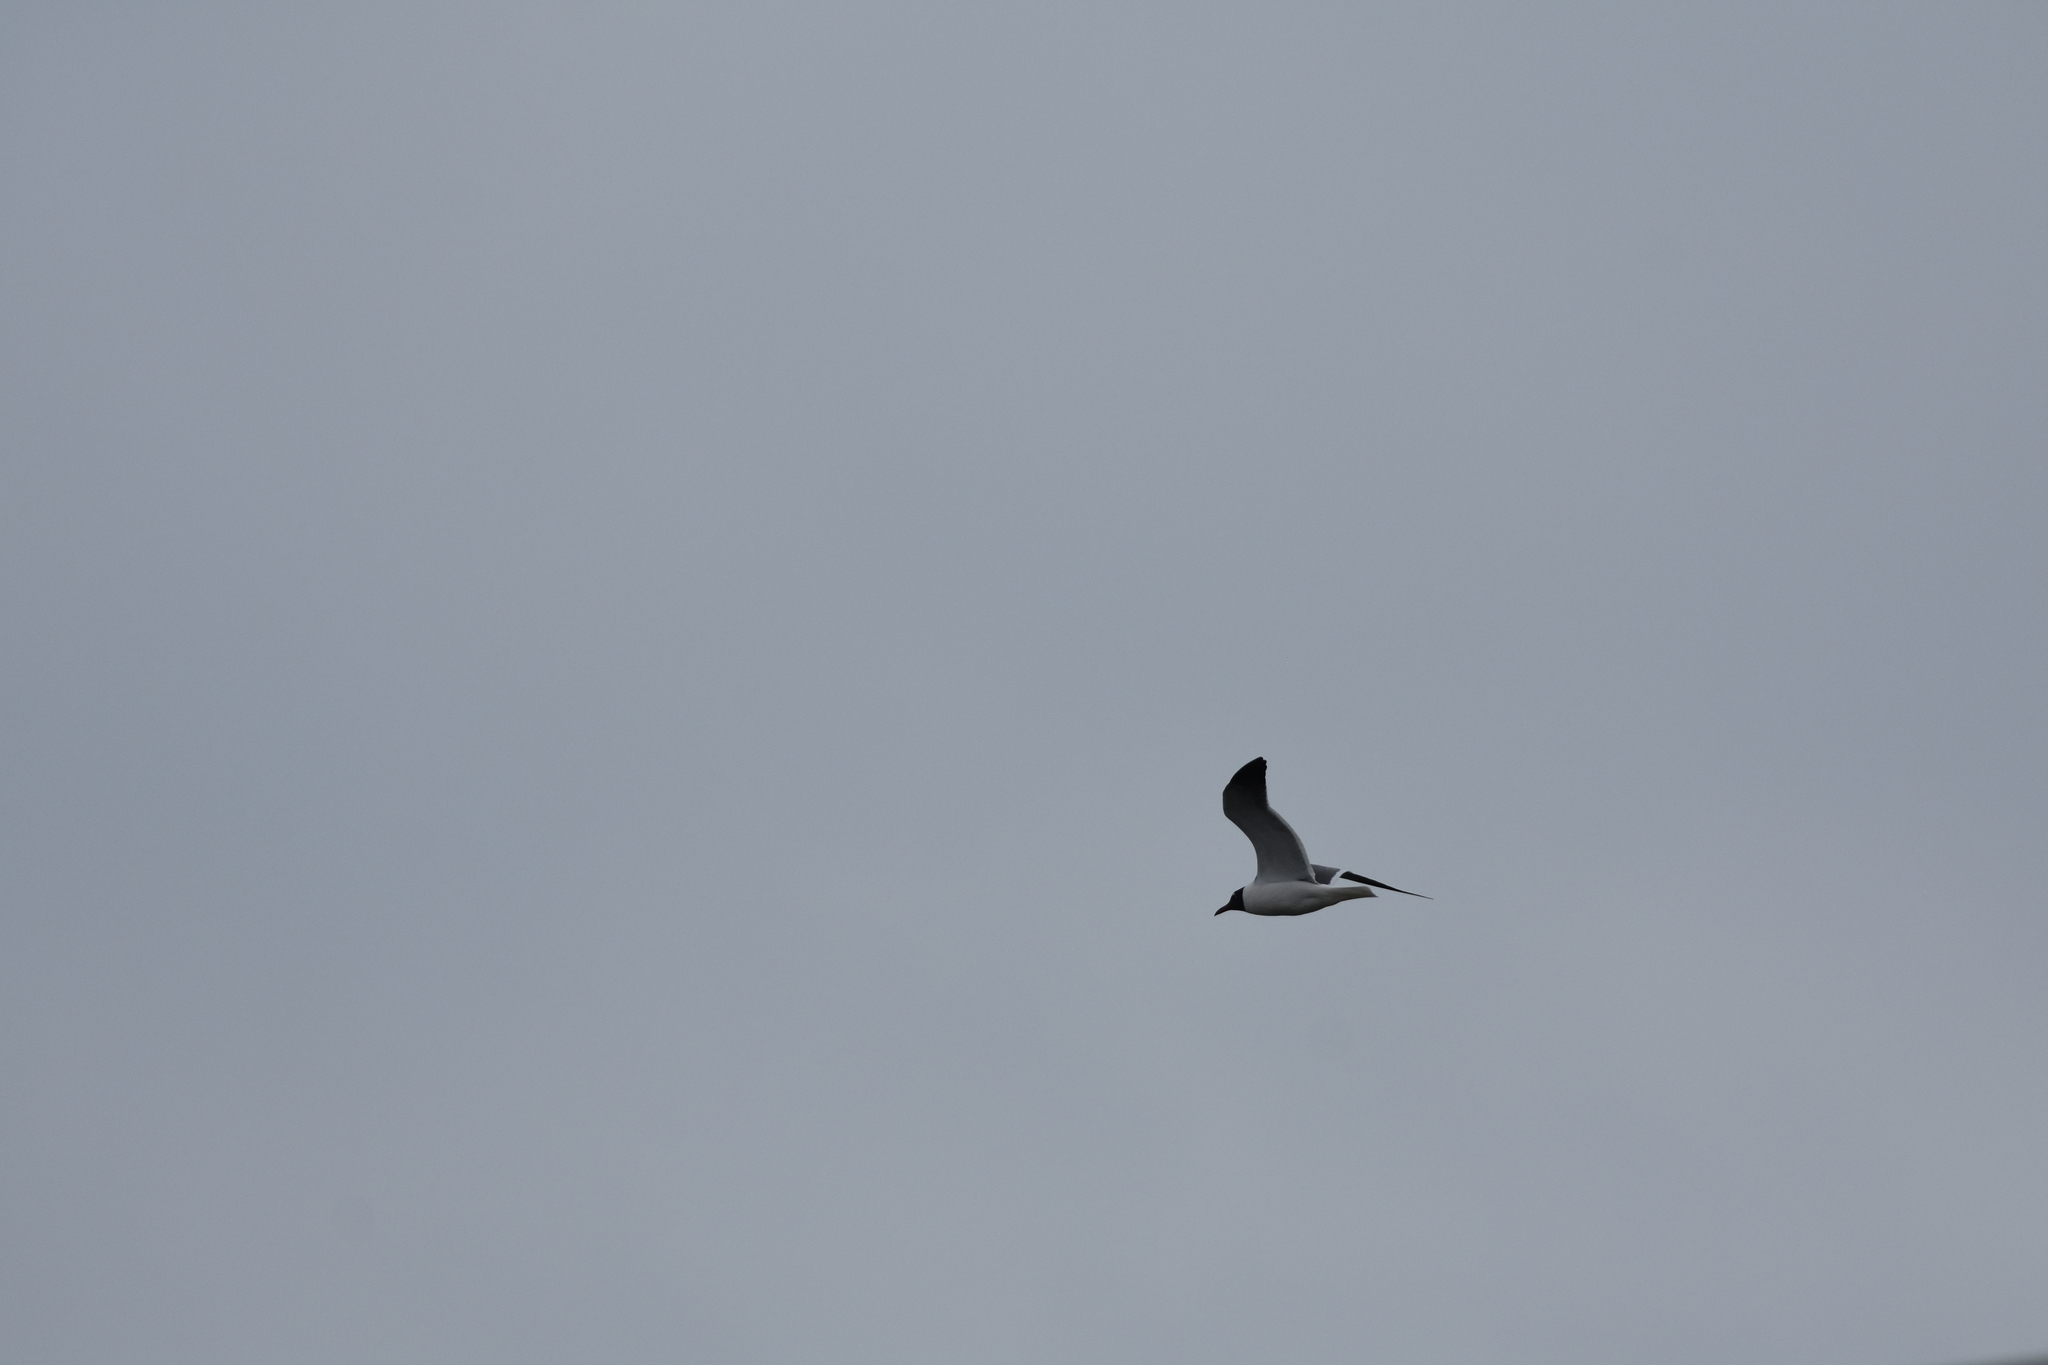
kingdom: Animalia
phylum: Chordata
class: Aves
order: Charadriiformes
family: Laridae
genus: Leucophaeus
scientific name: Leucophaeus atricilla
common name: Laughing gull
